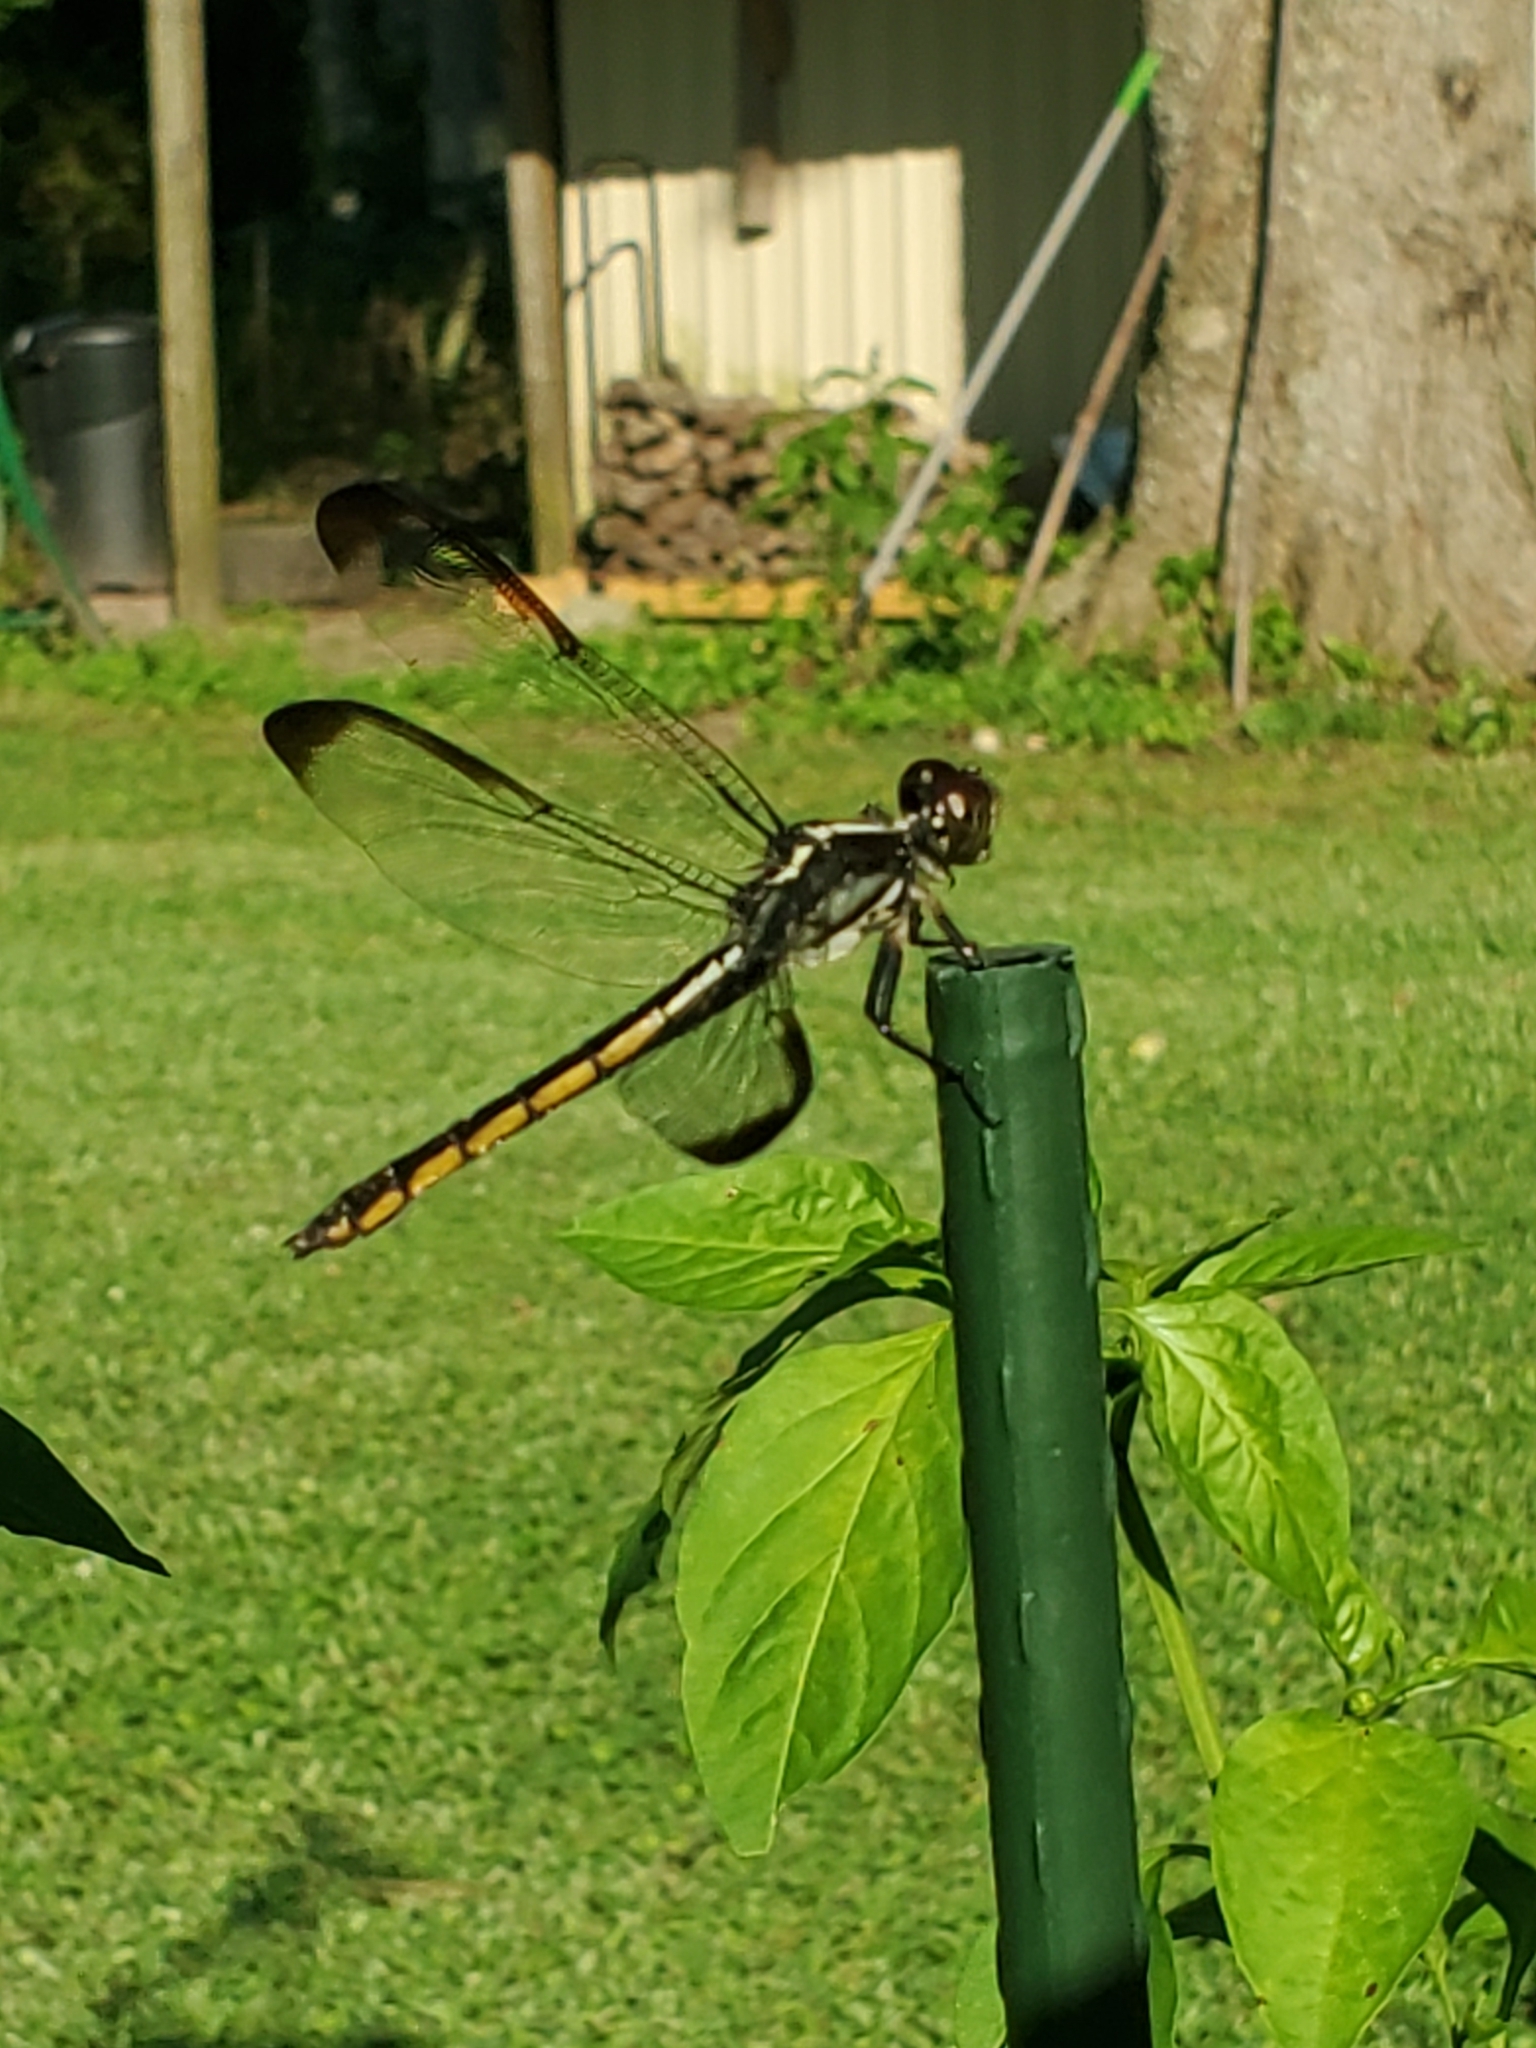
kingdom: Animalia
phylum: Arthropoda
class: Insecta
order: Odonata
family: Libellulidae
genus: Libellula
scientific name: Libellula incesta
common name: Slaty skimmer
